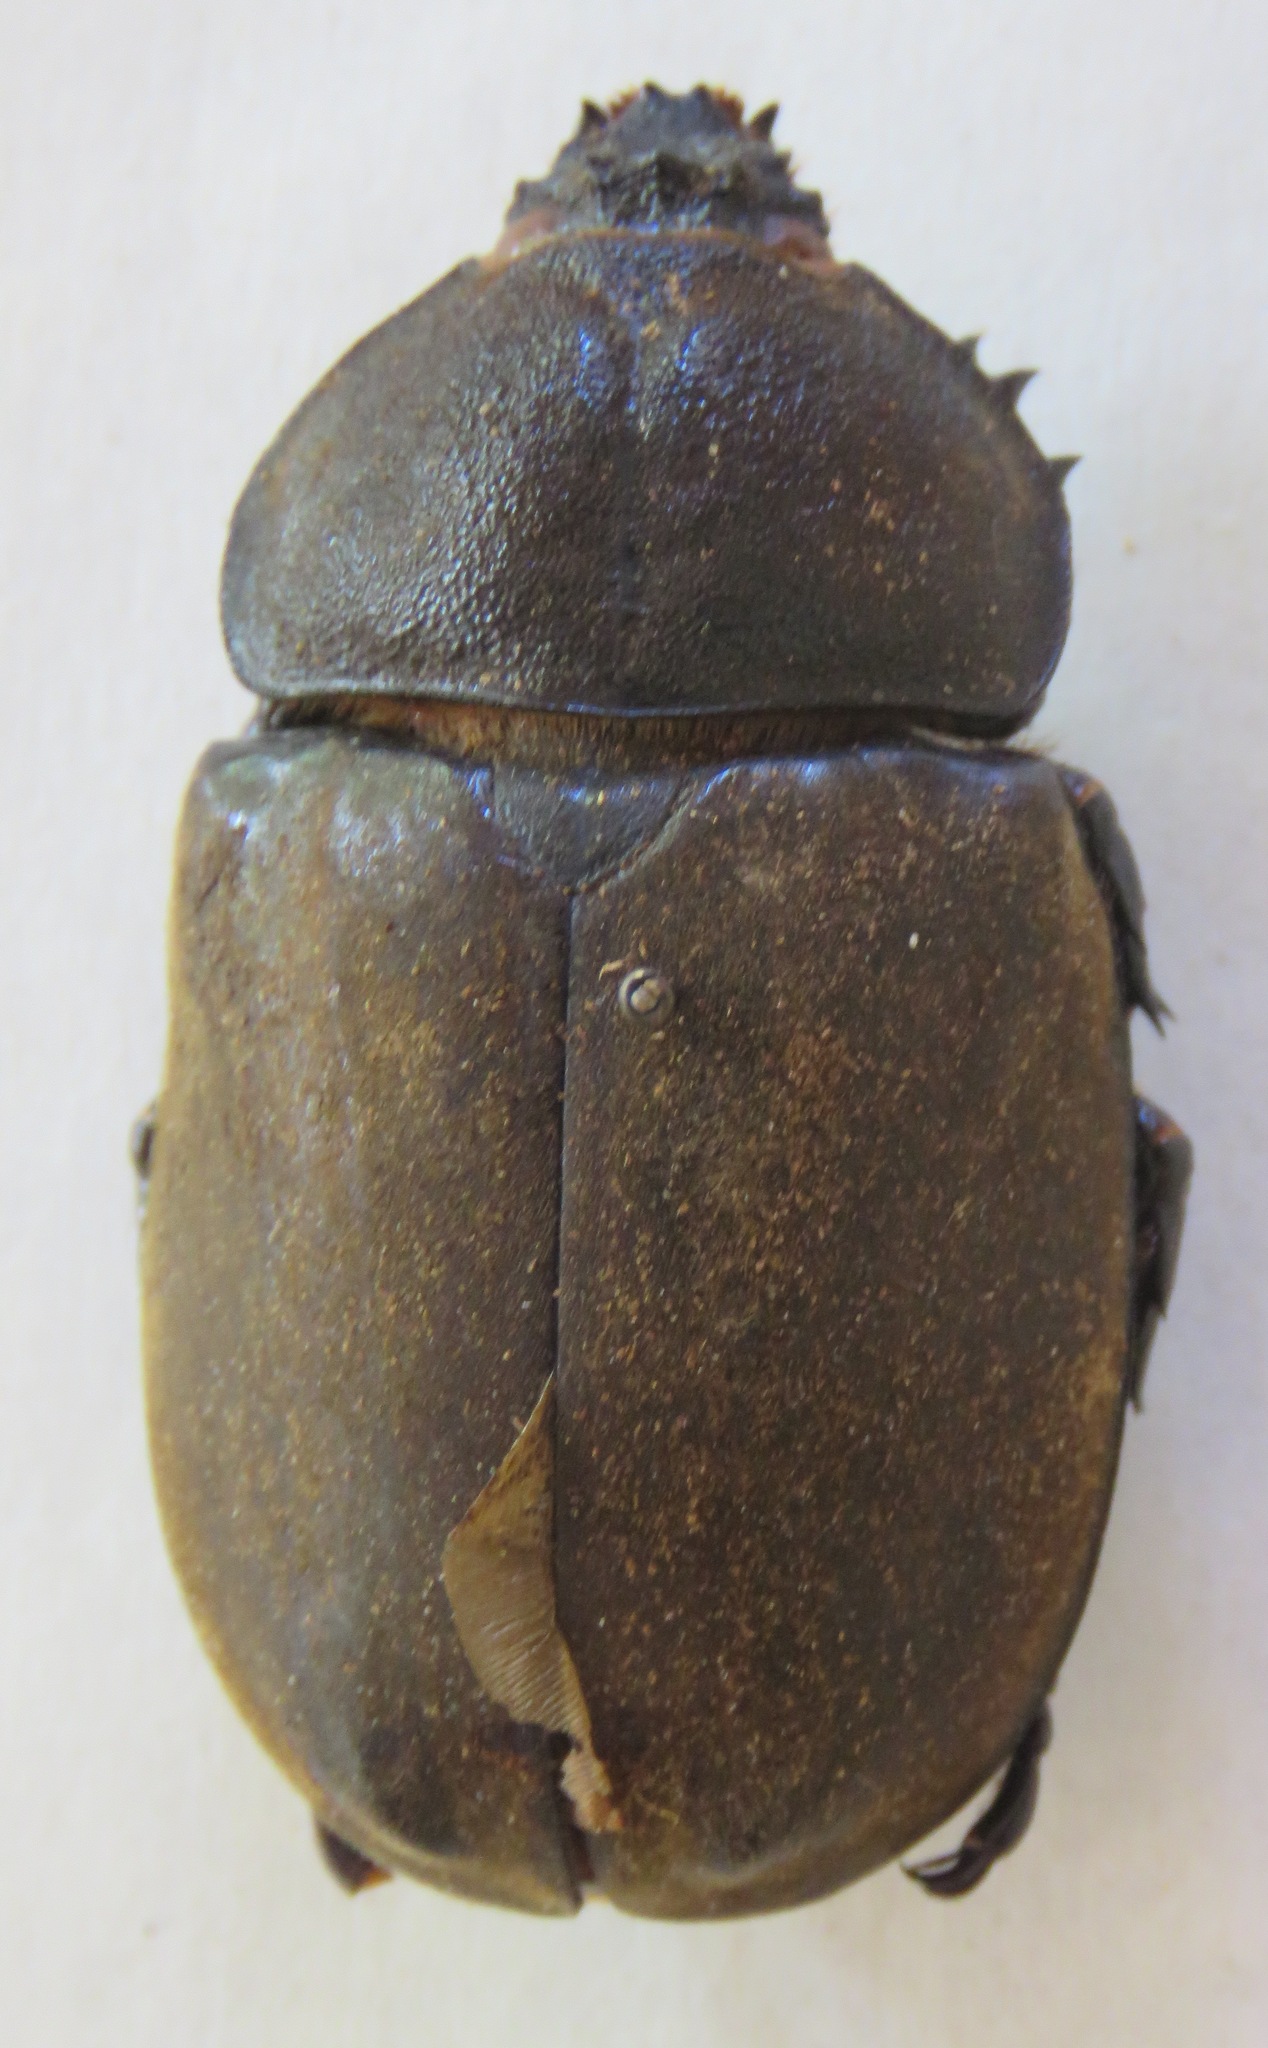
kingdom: Animalia
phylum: Arthropoda
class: Insecta
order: Coleoptera
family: Scarabaeidae
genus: Trypoxylus
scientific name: Trypoxylus dichotomus
